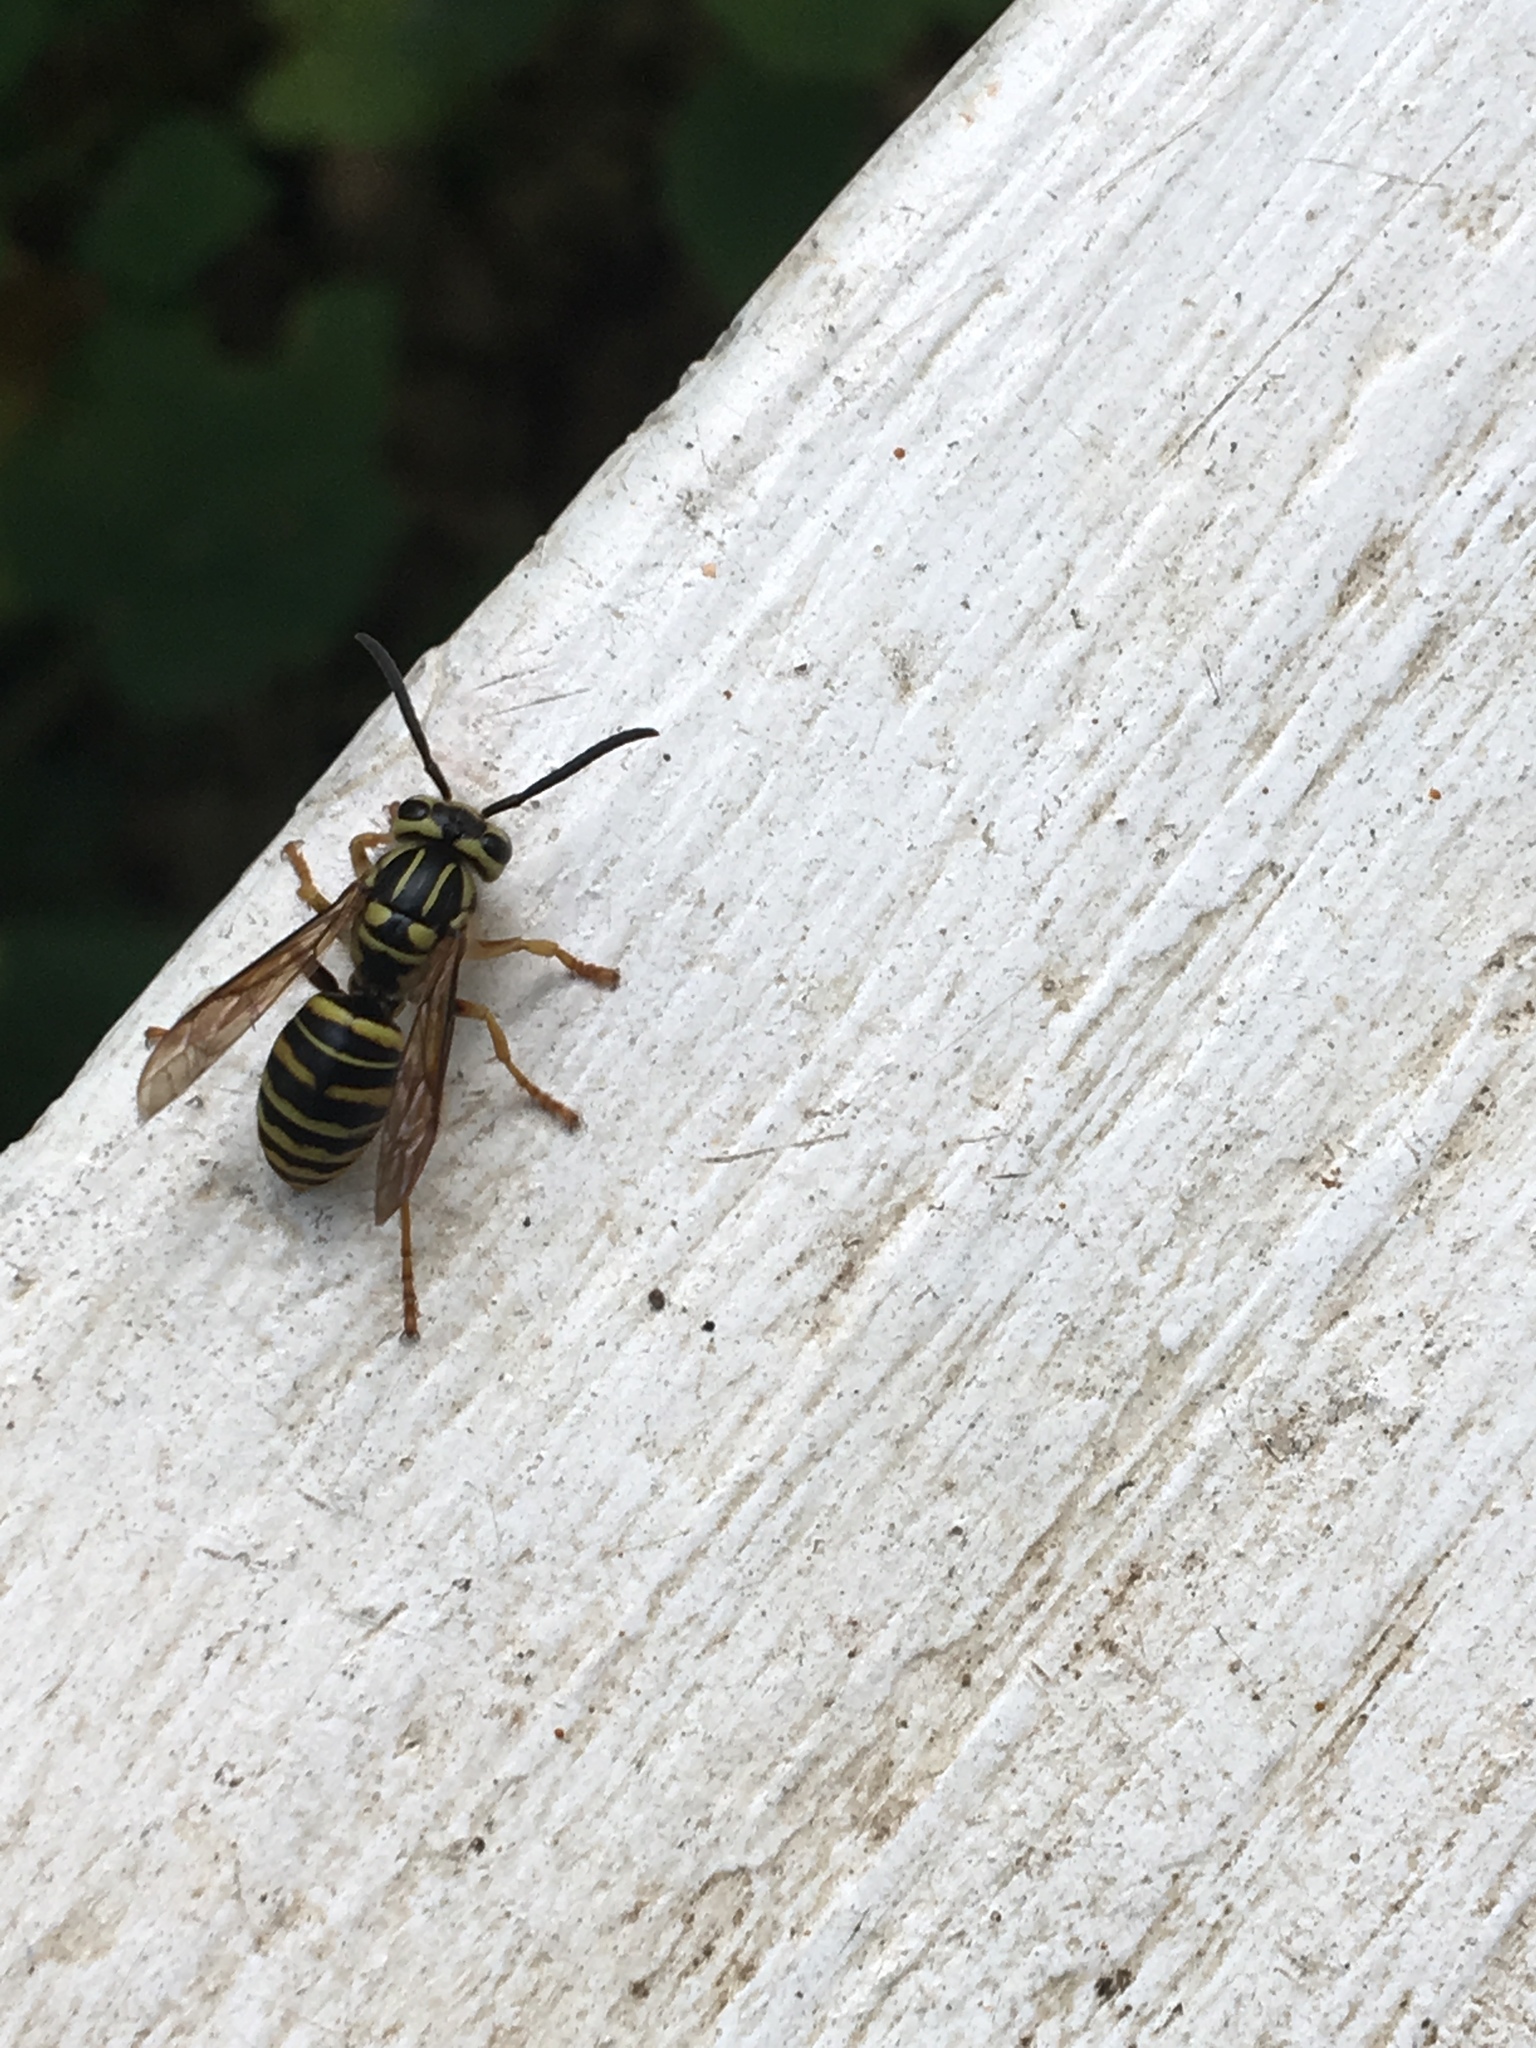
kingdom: Animalia
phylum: Arthropoda
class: Insecta
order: Hymenoptera
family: Vespidae
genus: Vespula
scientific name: Vespula squamosa
